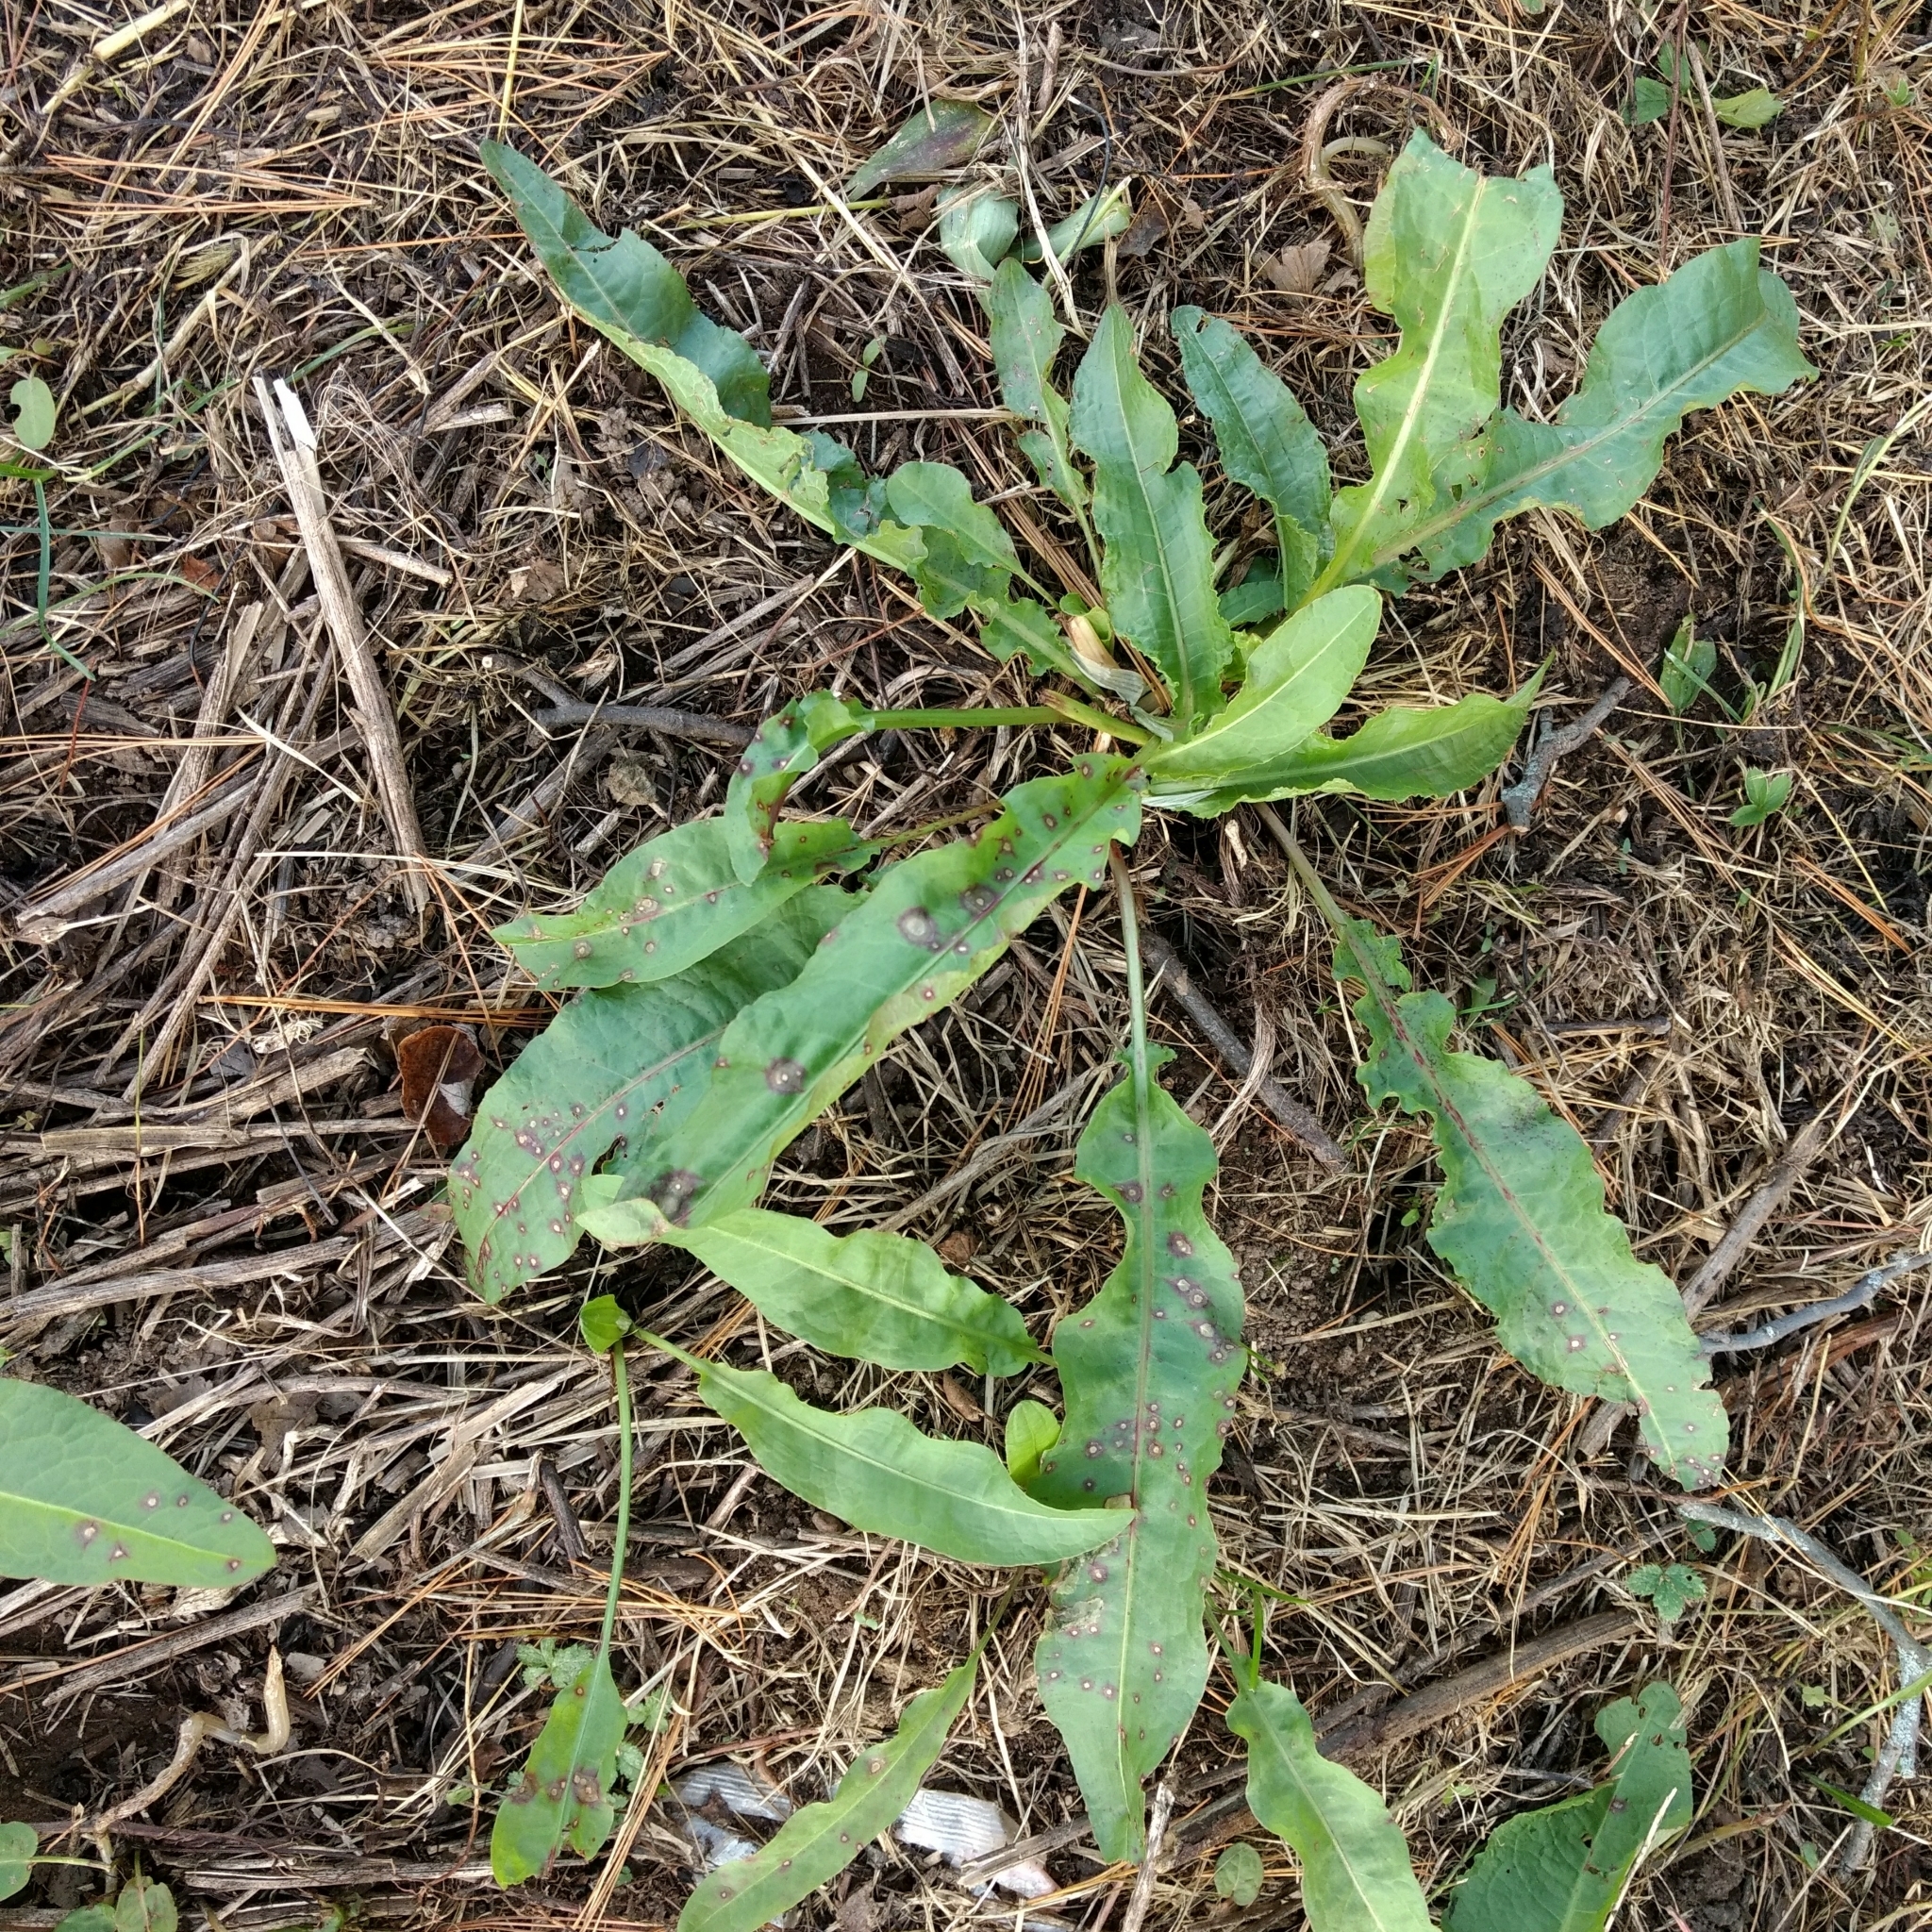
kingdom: Plantae
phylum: Tracheophyta
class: Magnoliopsida
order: Caryophyllales
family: Polygonaceae
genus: Rumex
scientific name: Rumex crispus
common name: Curled dock
